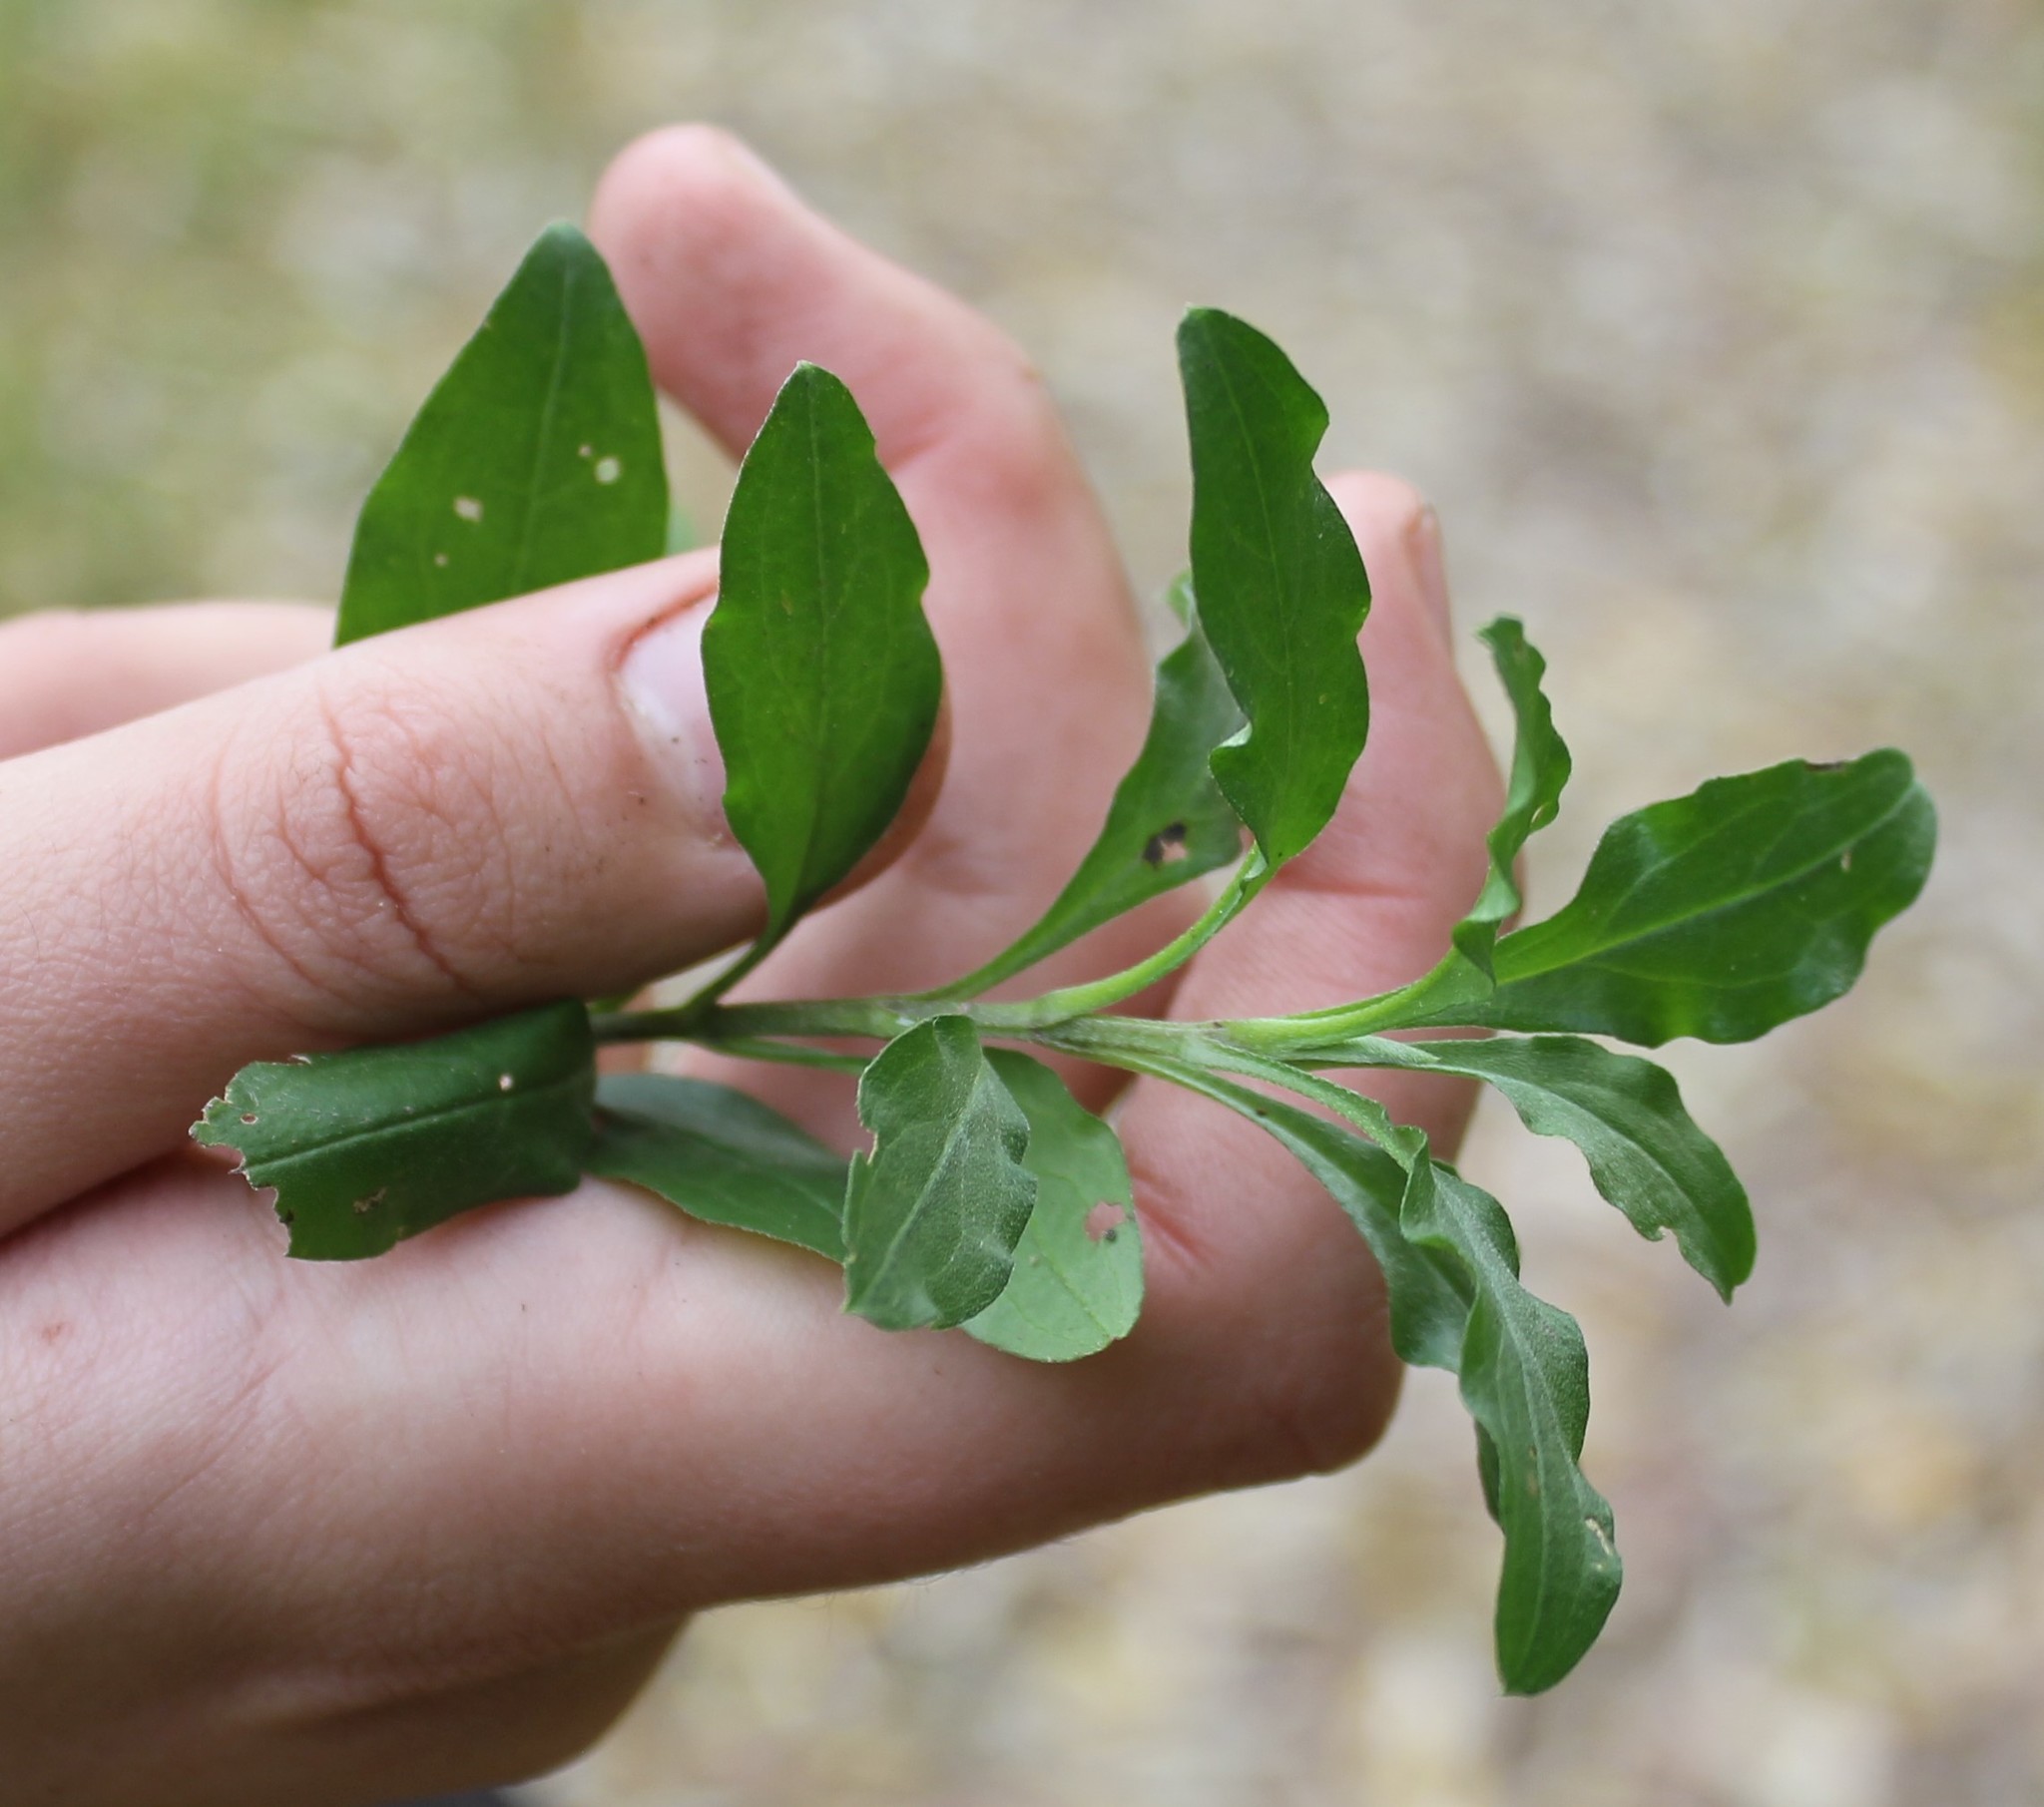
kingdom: Plantae
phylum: Tracheophyta
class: Magnoliopsida
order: Boraginales
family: Boraginaceae
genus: Memoremea
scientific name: Memoremea scorpioides
